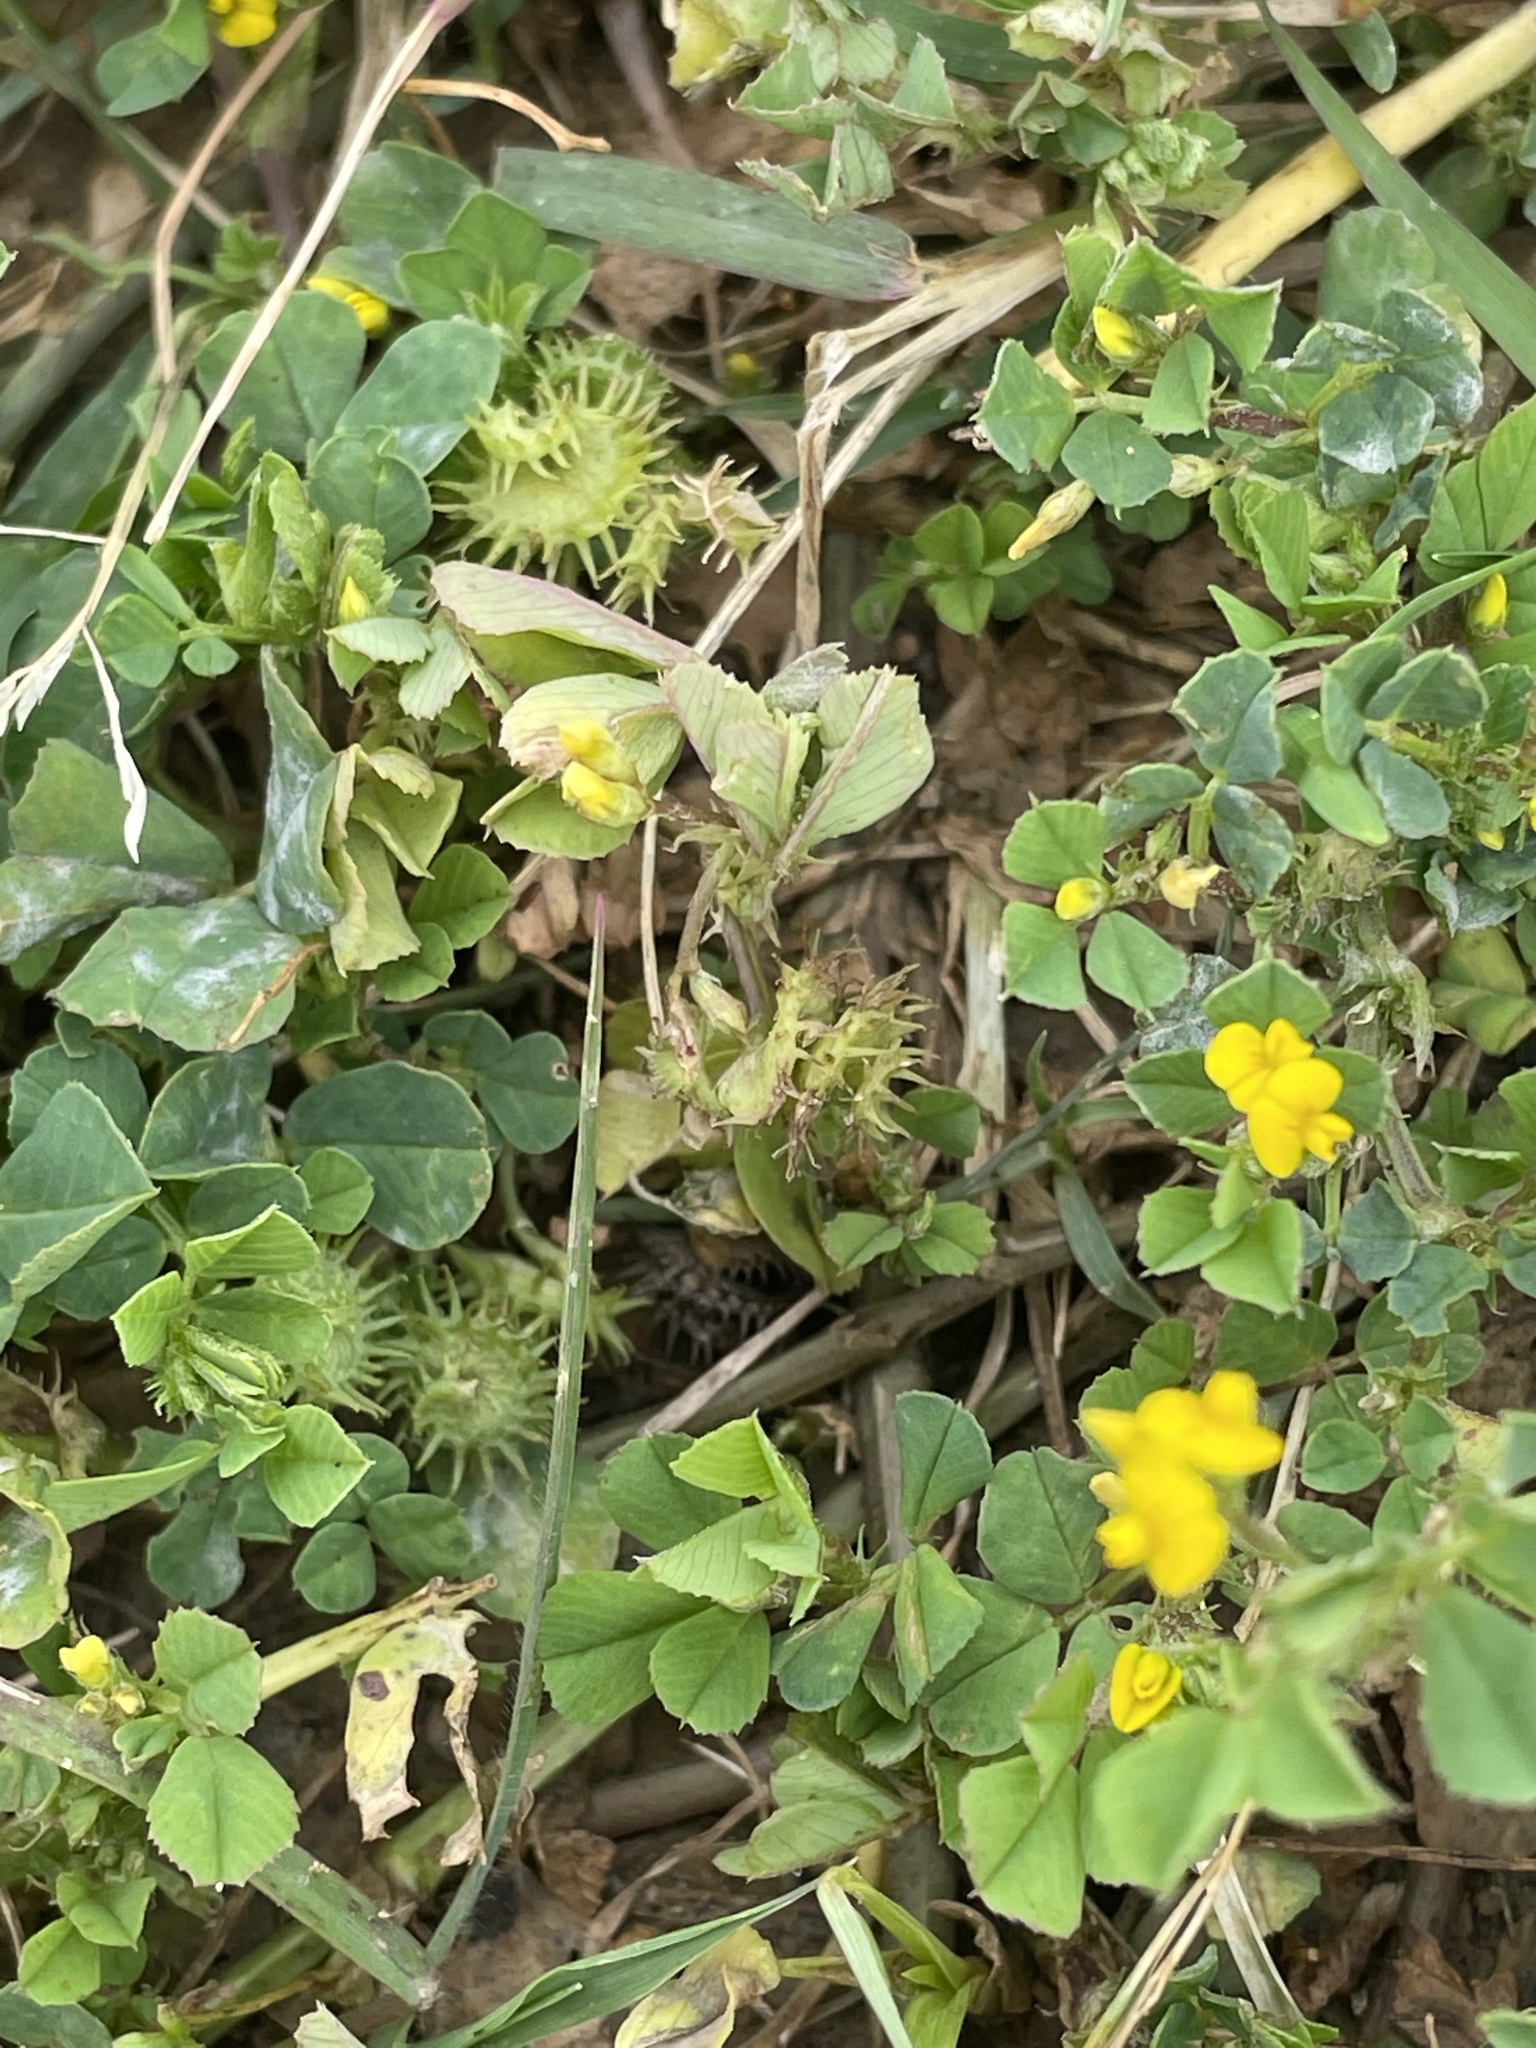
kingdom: Plantae
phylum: Tracheophyta
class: Magnoliopsida
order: Fabales
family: Fabaceae
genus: Medicago
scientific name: Medicago polymorpha
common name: Burclover
